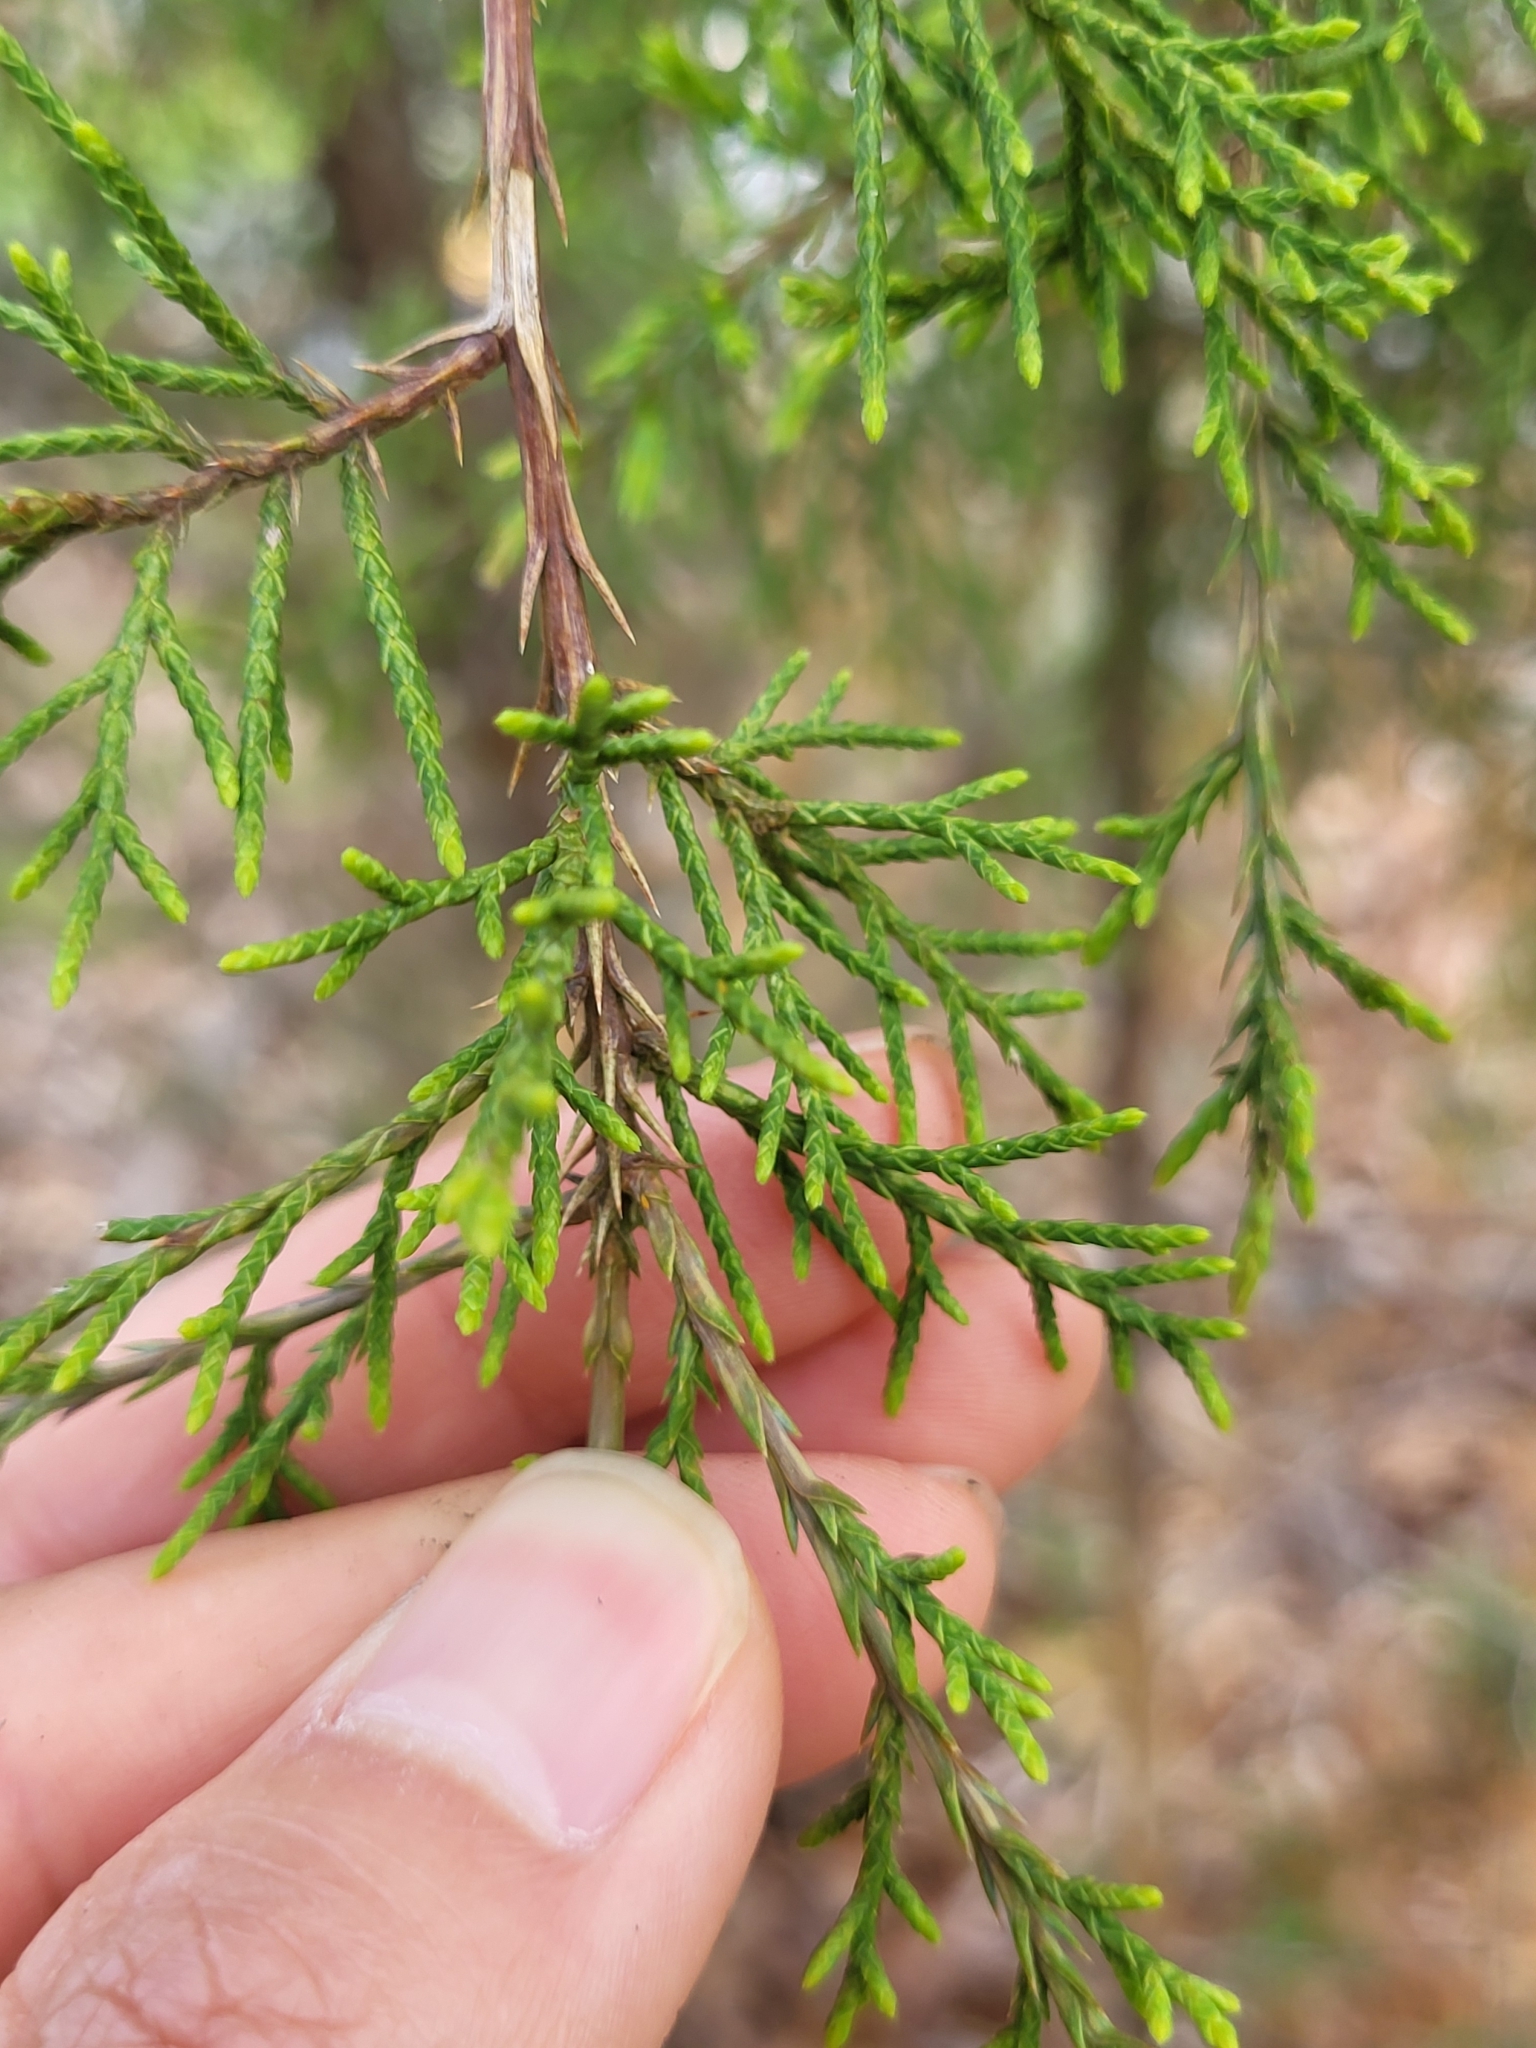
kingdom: Plantae
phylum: Tracheophyta
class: Pinopsida
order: Pinales
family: Cupressaceae
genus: Juniperus
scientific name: Juniperus virginiana
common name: Red juniper
